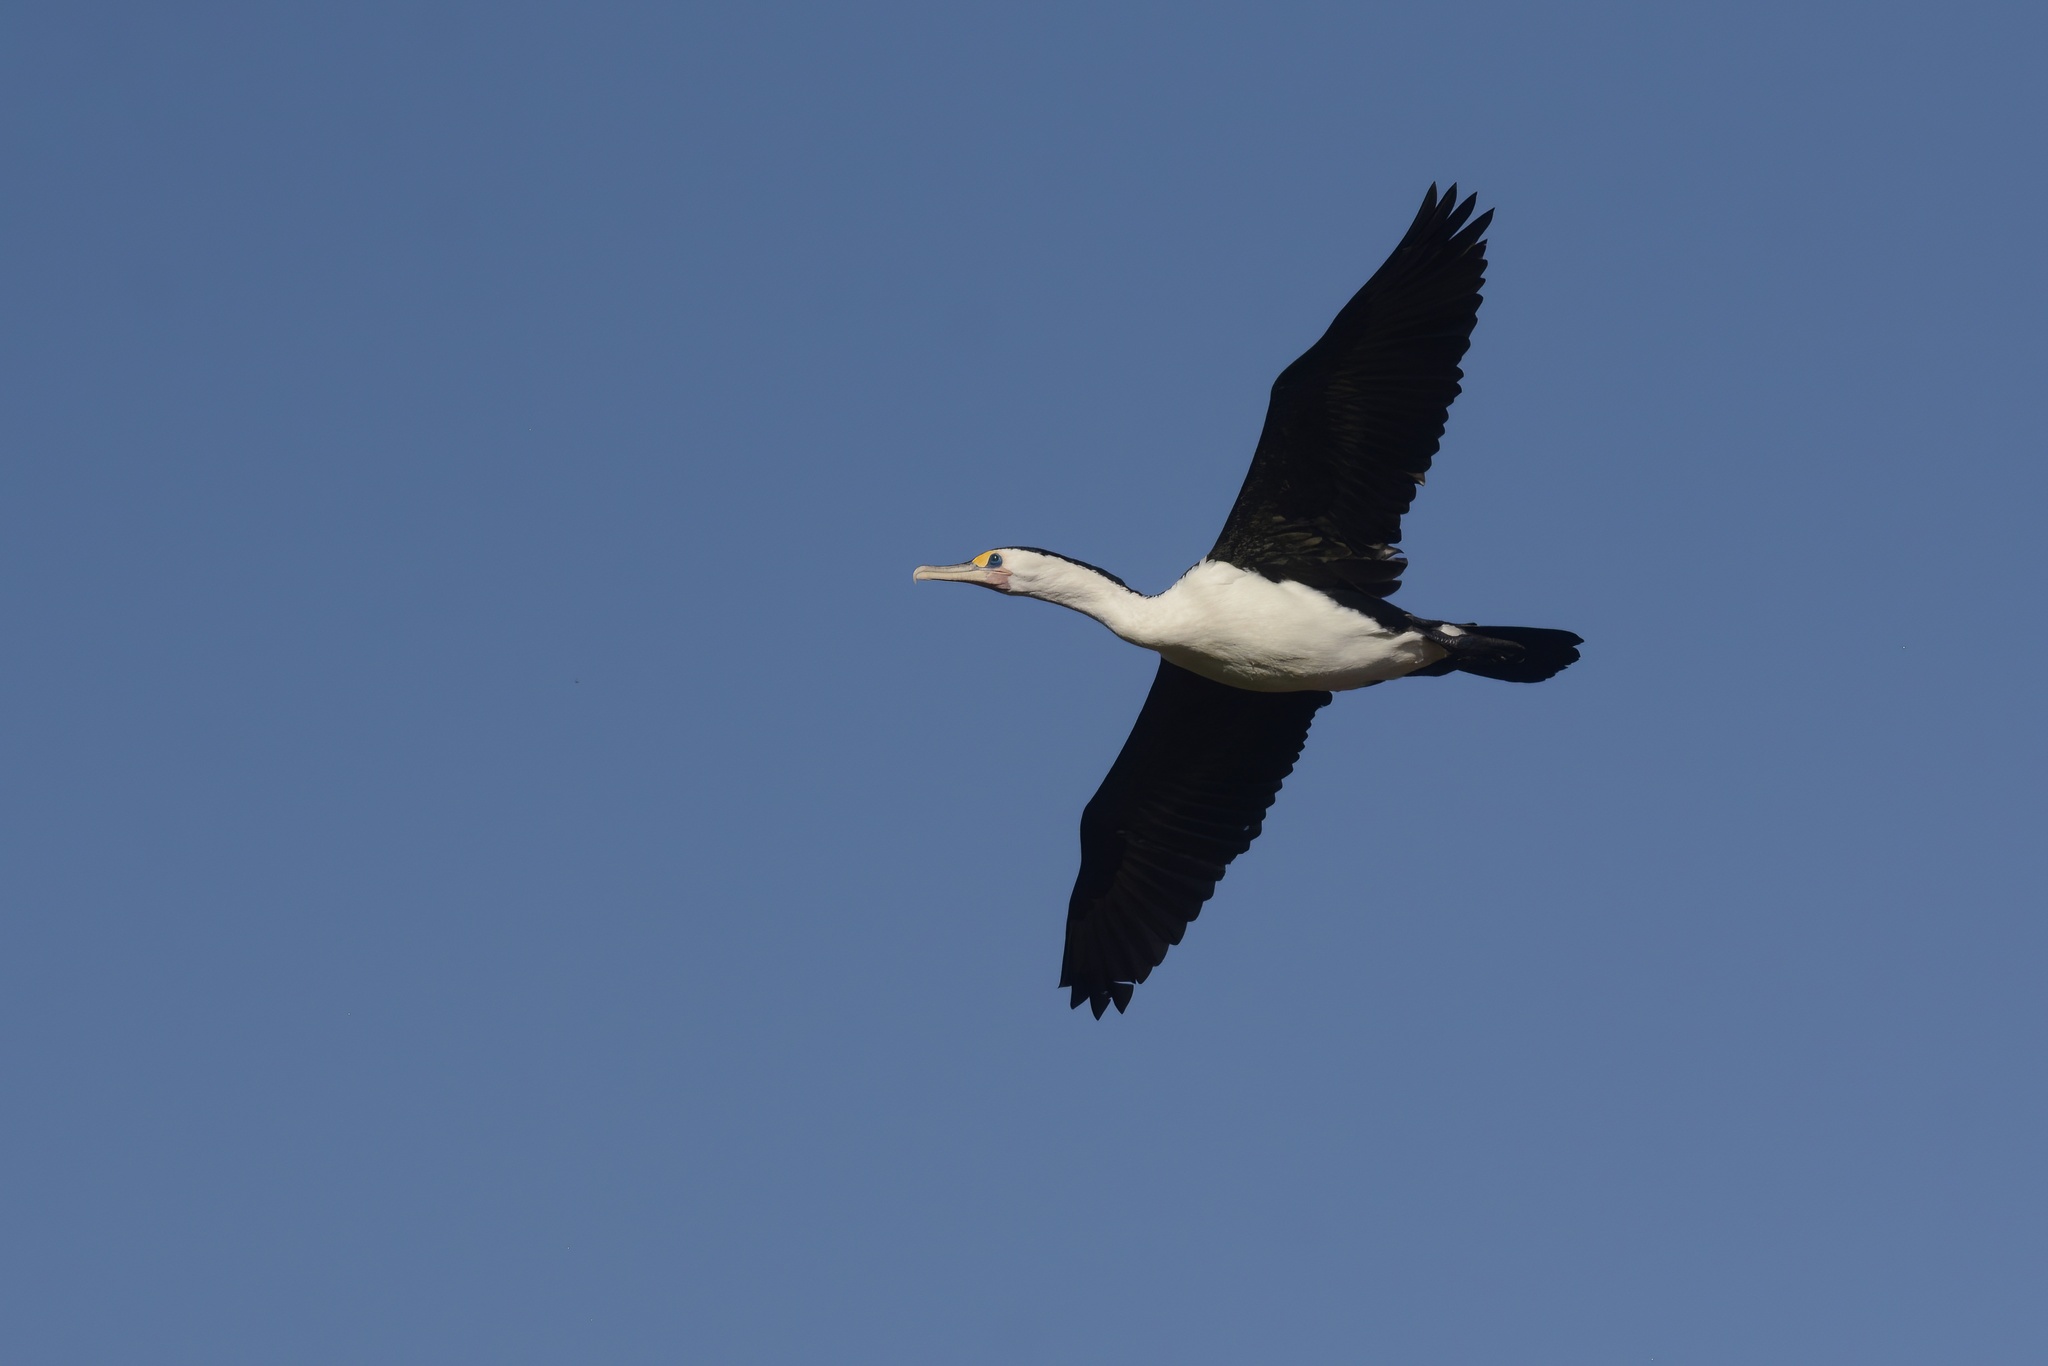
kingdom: Animalia
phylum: Chordata
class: Aves
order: Suliformes
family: Phalacrocoracidae
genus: Phalacrocorax
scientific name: Phalacrocorax varius
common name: Pied cormorant
